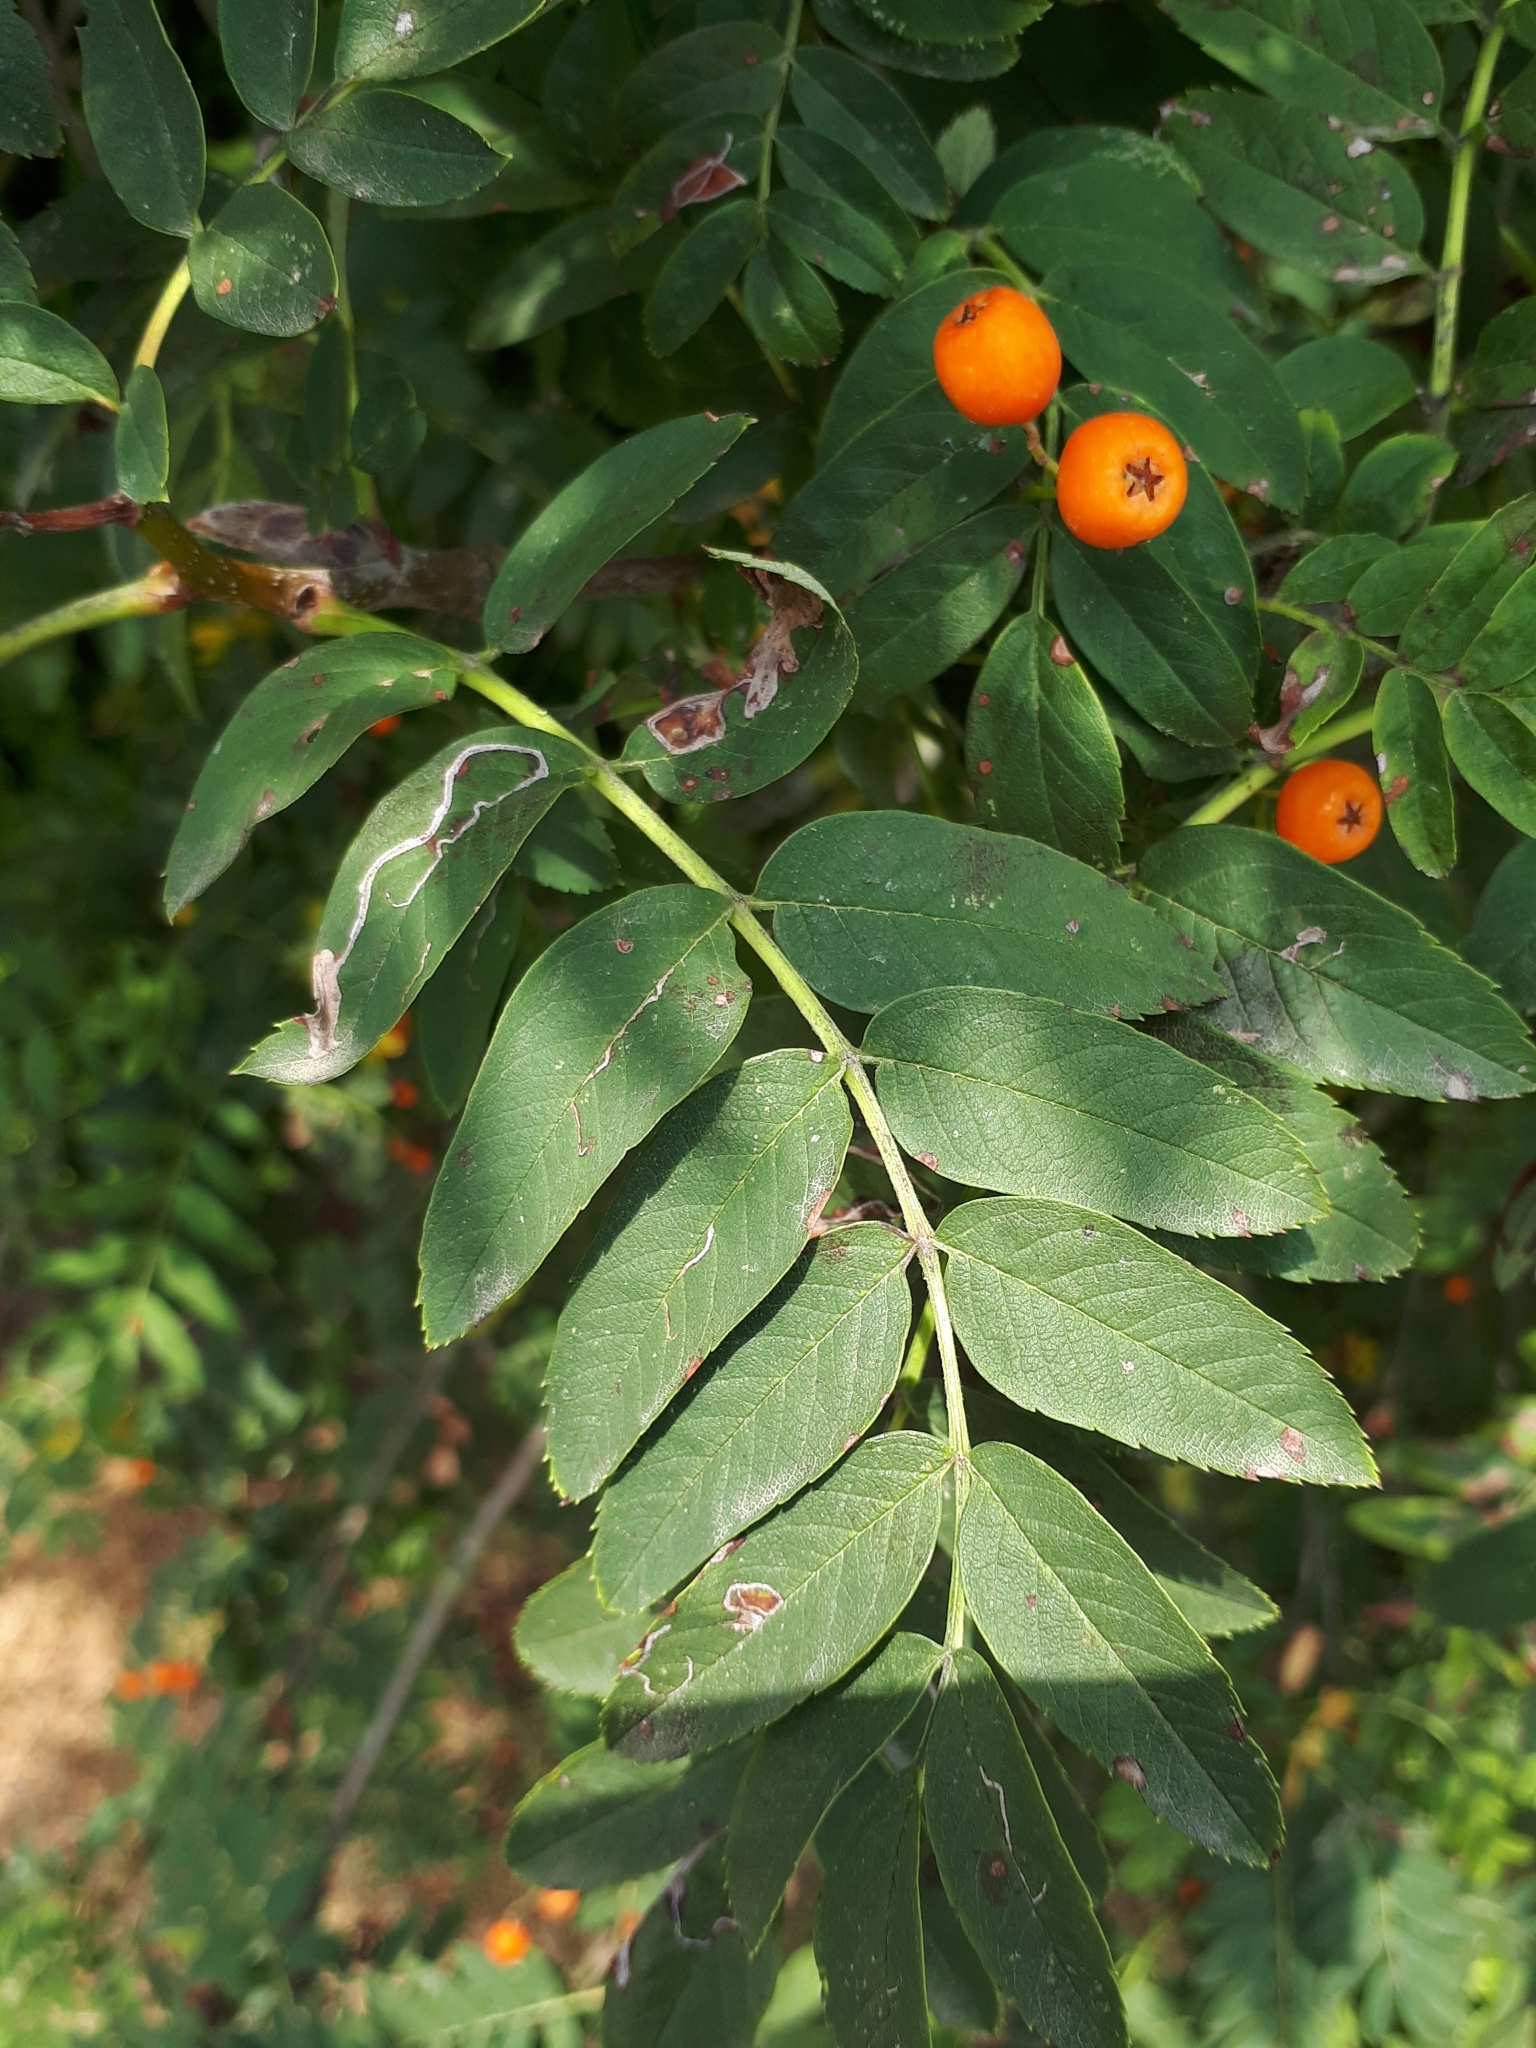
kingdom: Plantae
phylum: Tracheophyta
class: Magnoliopsida
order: Rosales
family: Rosaceae
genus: Sorbus
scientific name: Sorbus aucuparia
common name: Rowan
